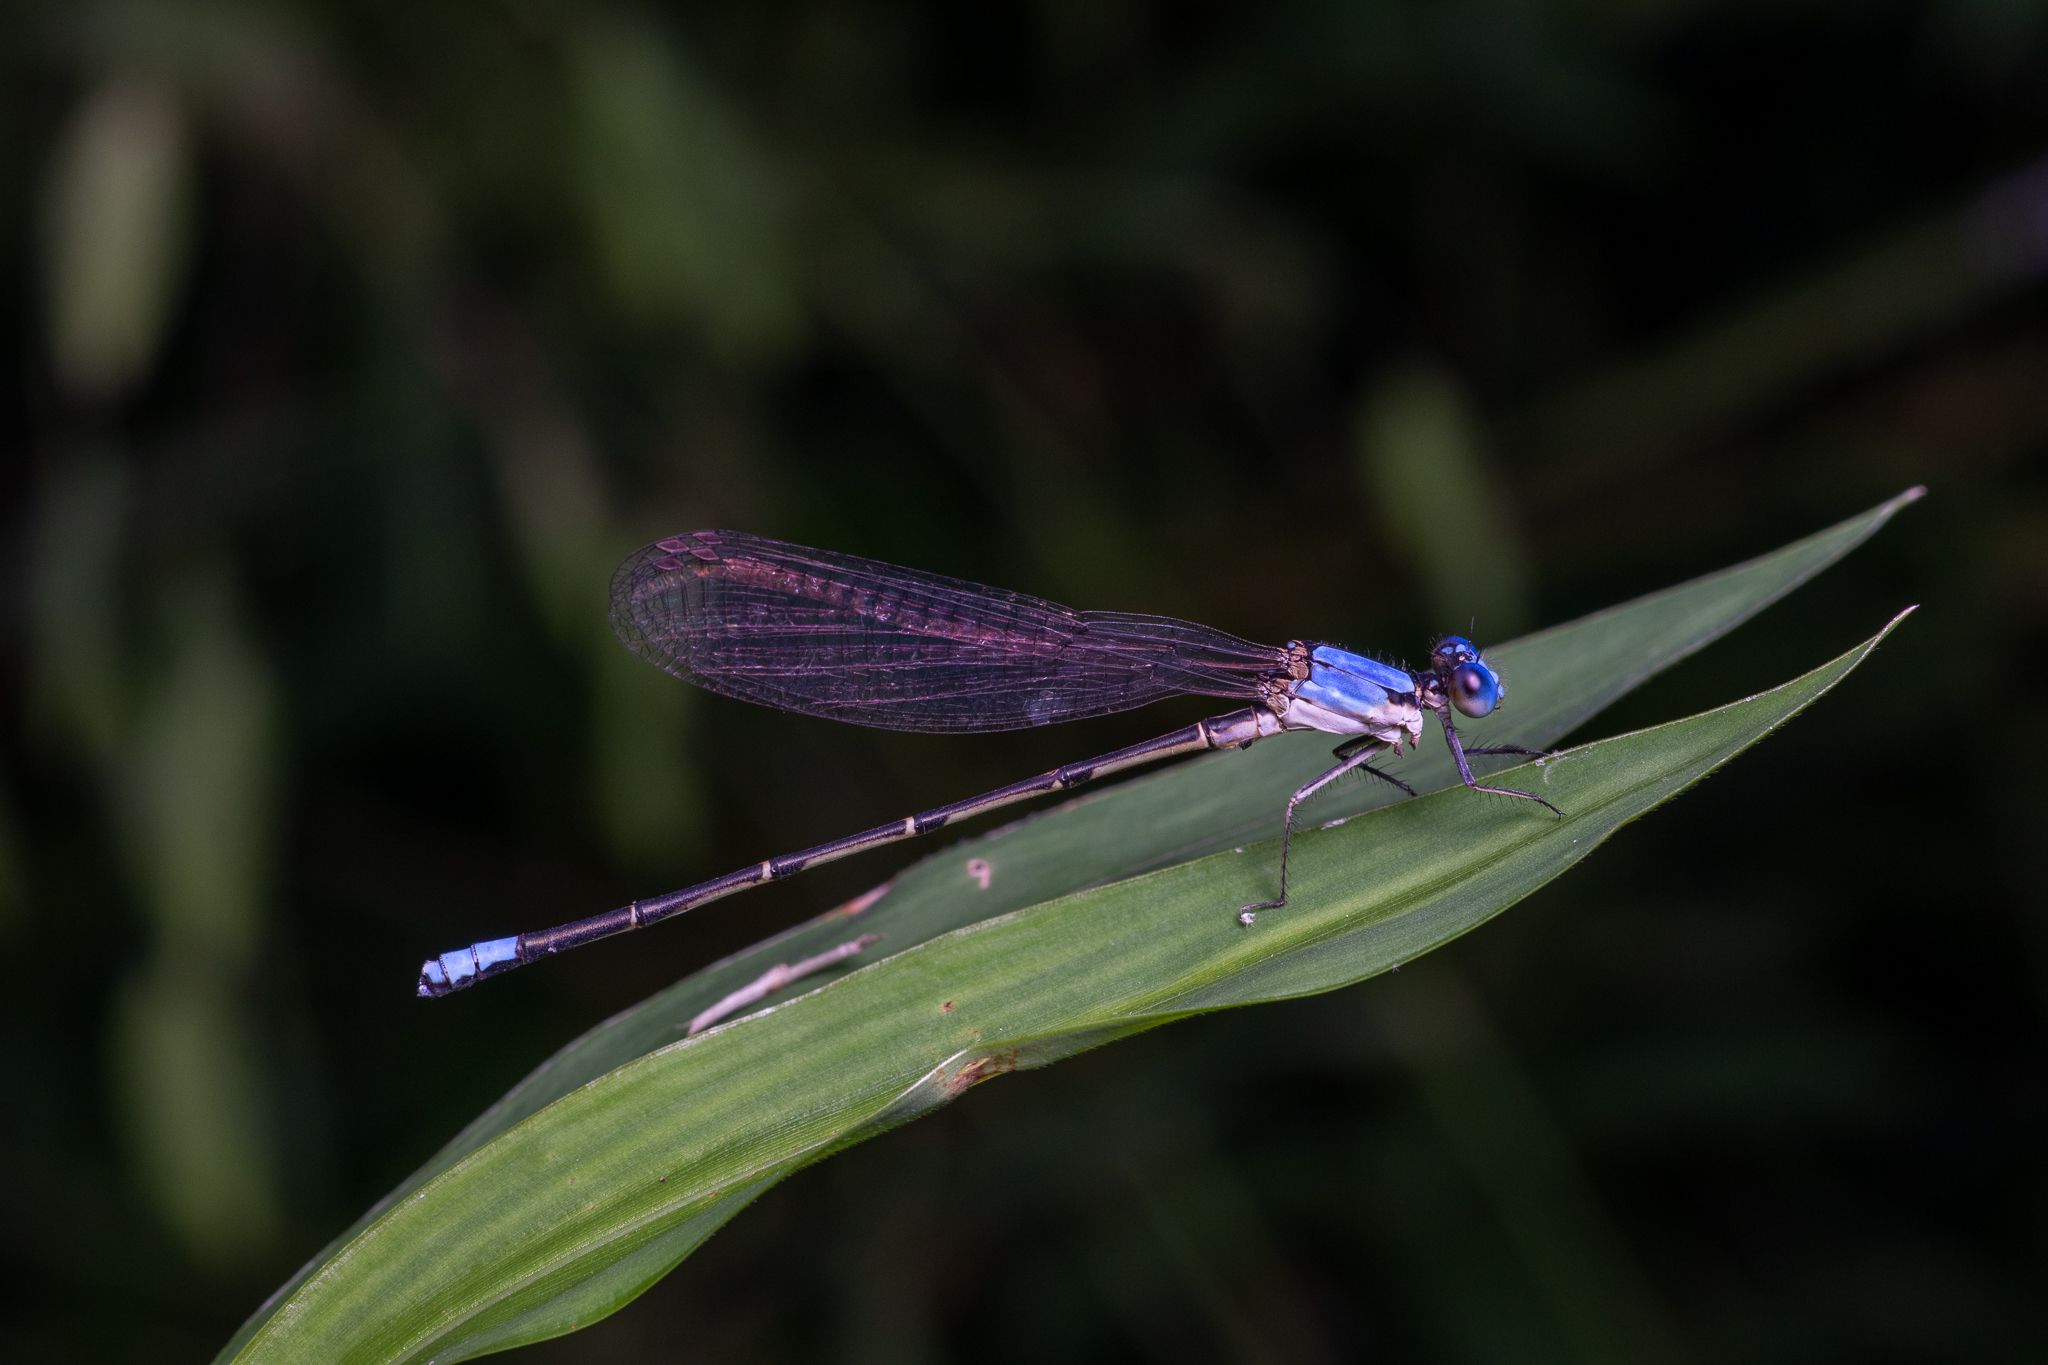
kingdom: Animalia
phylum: Arthropoda
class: Insecta
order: Odonata
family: Coenagrionidae
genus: Argia
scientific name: Argia apicalis
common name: Blue-fronted dancer
